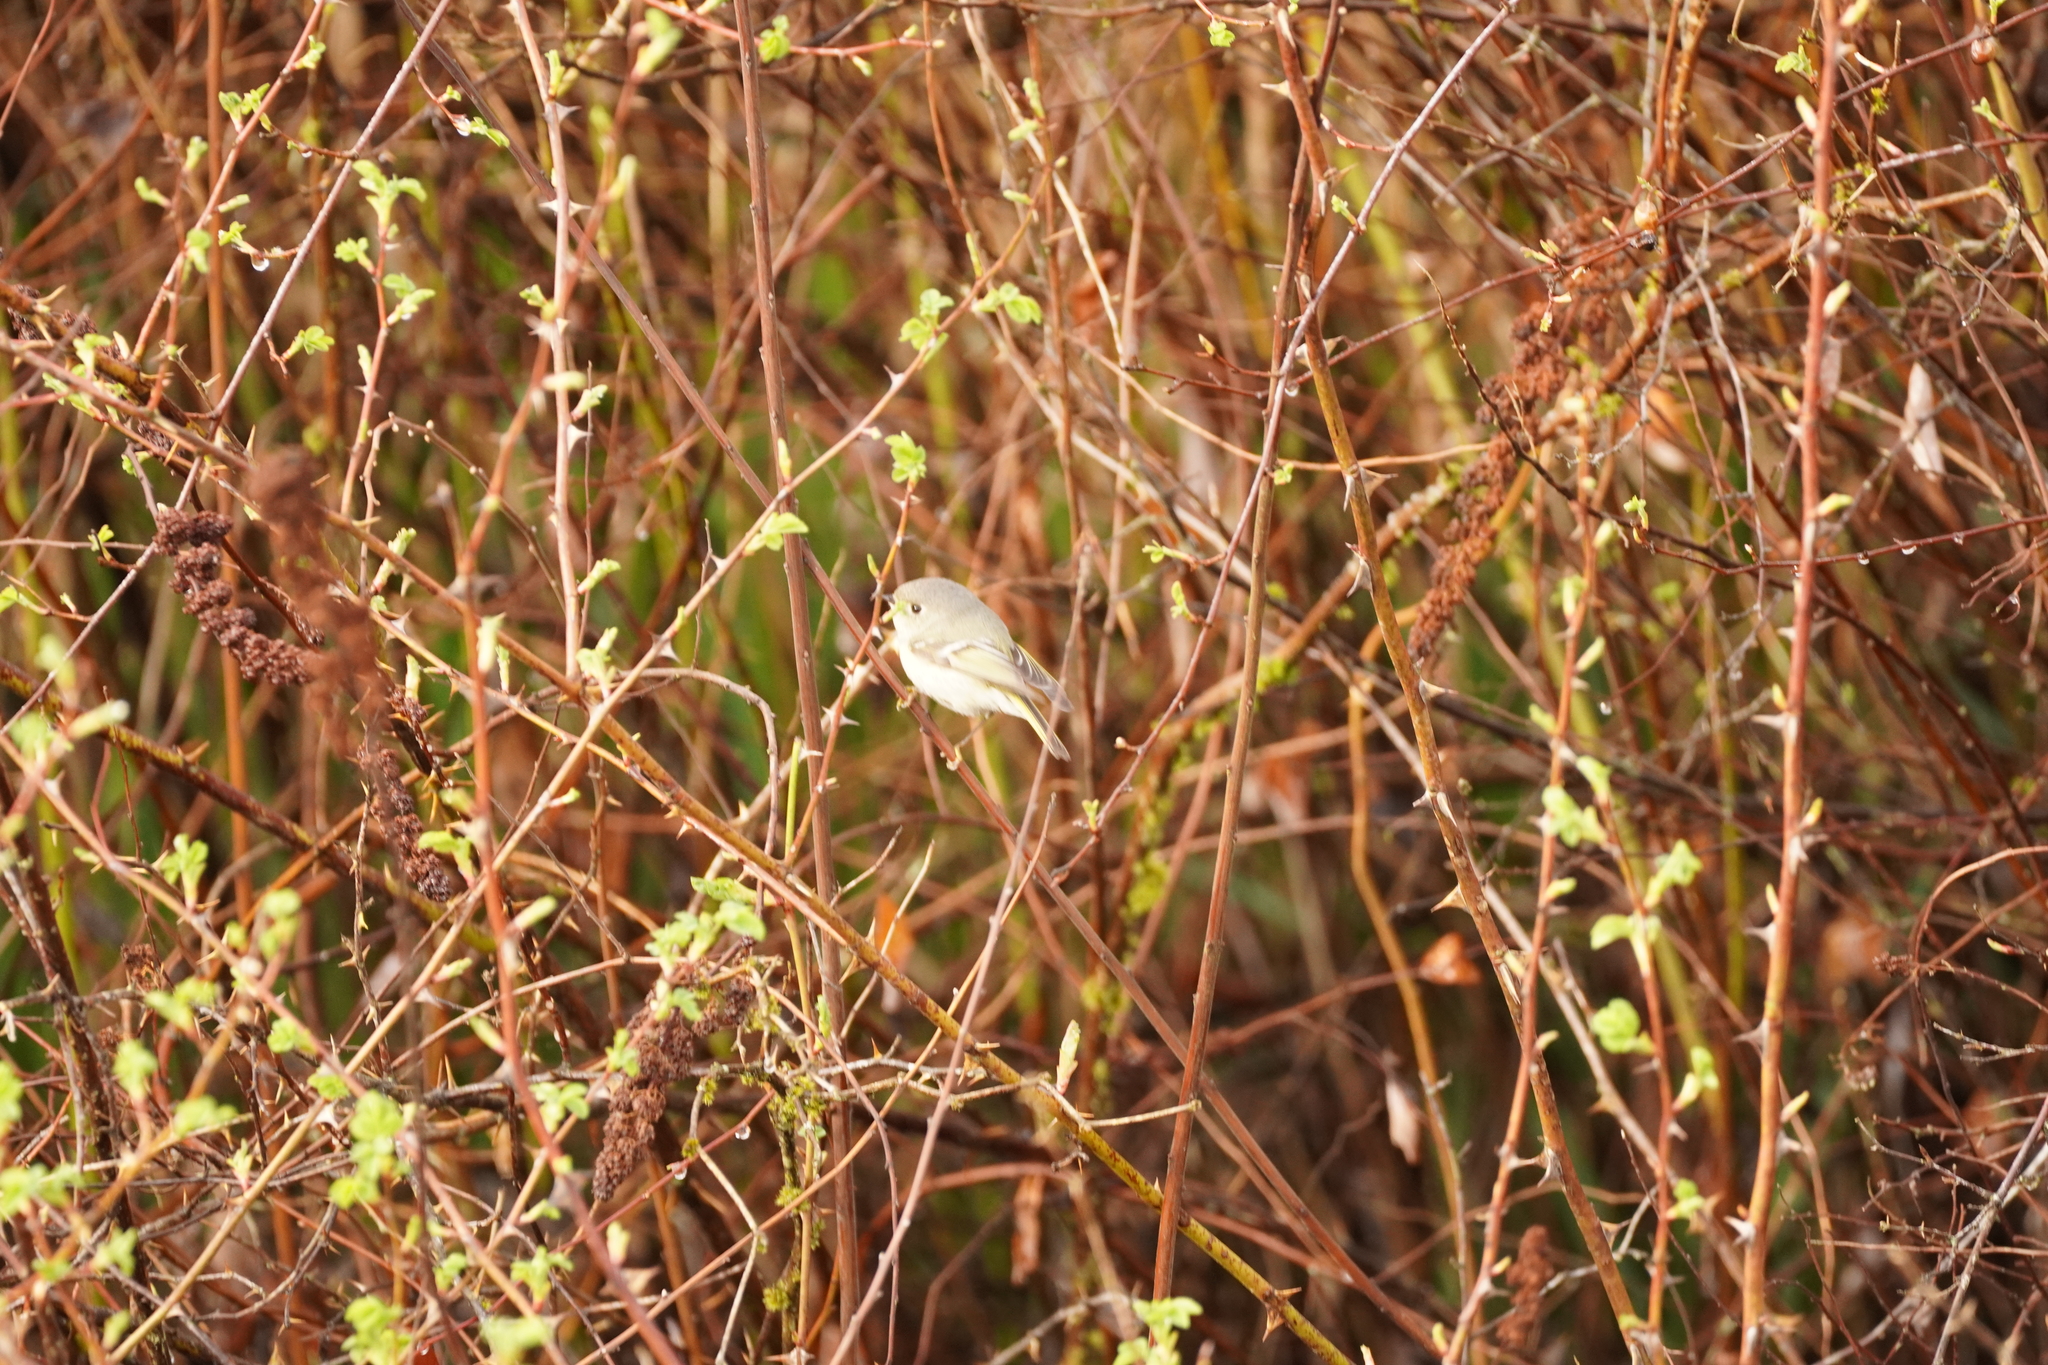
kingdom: Animalia
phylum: Chordata
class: Aves
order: Passeriformes
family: Regulidae
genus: Regulus
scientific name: Regulus calendula
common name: Ruby-crowned kinglet
